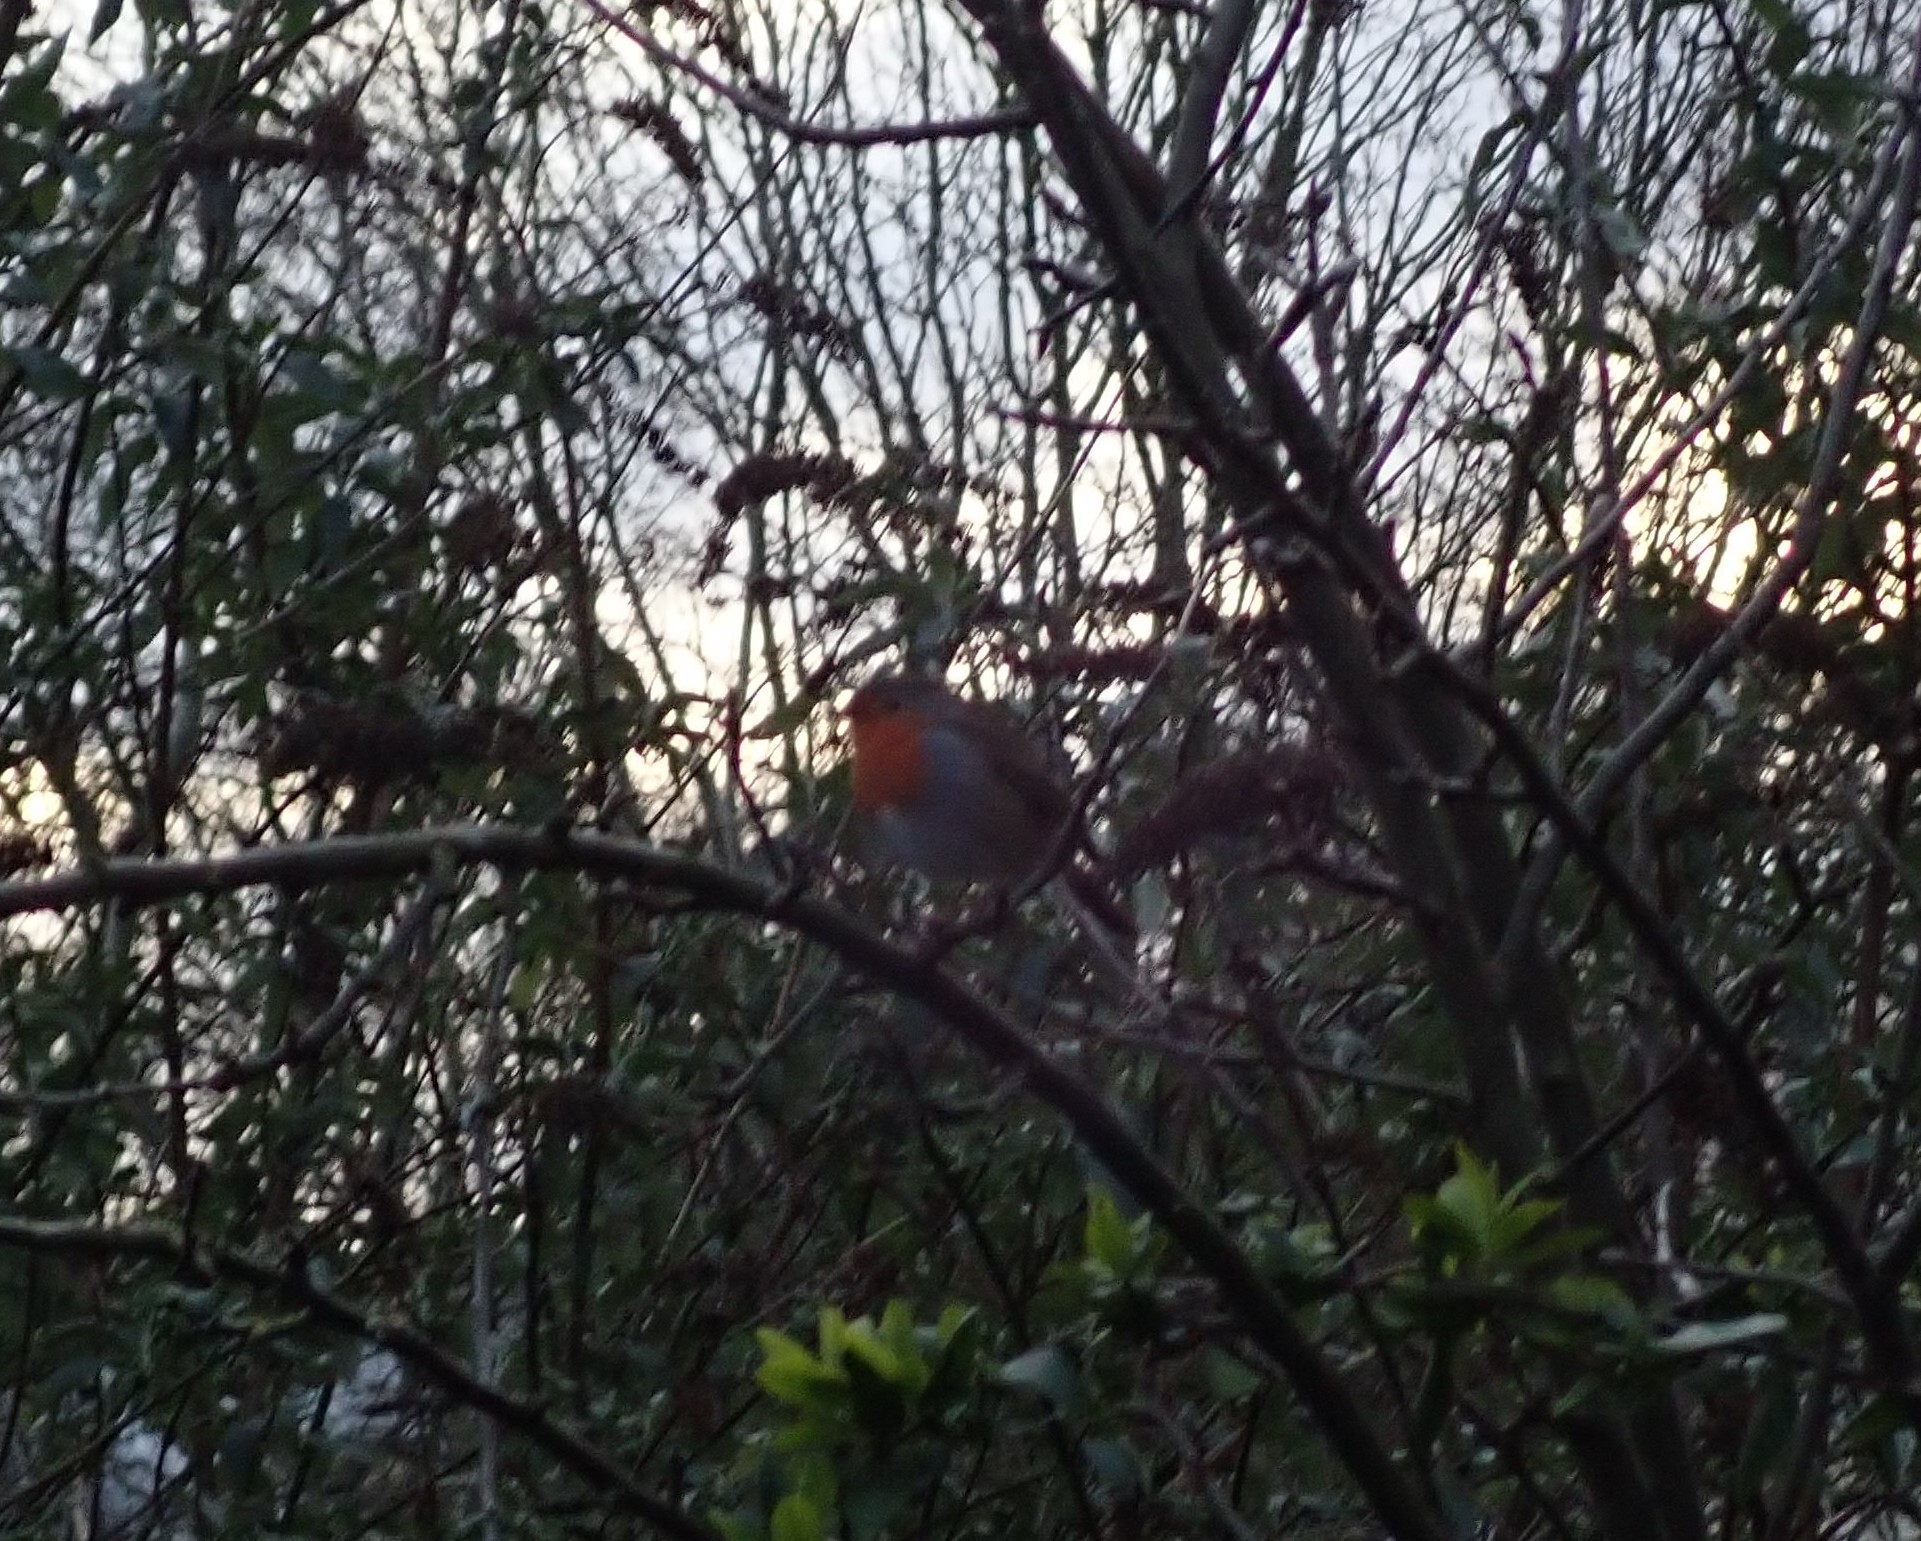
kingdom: Animalia
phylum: Chordata
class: Aves
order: Passeriformes
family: Muscicapidae
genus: Erithacus
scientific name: Erithacus rubecula
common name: European robin
